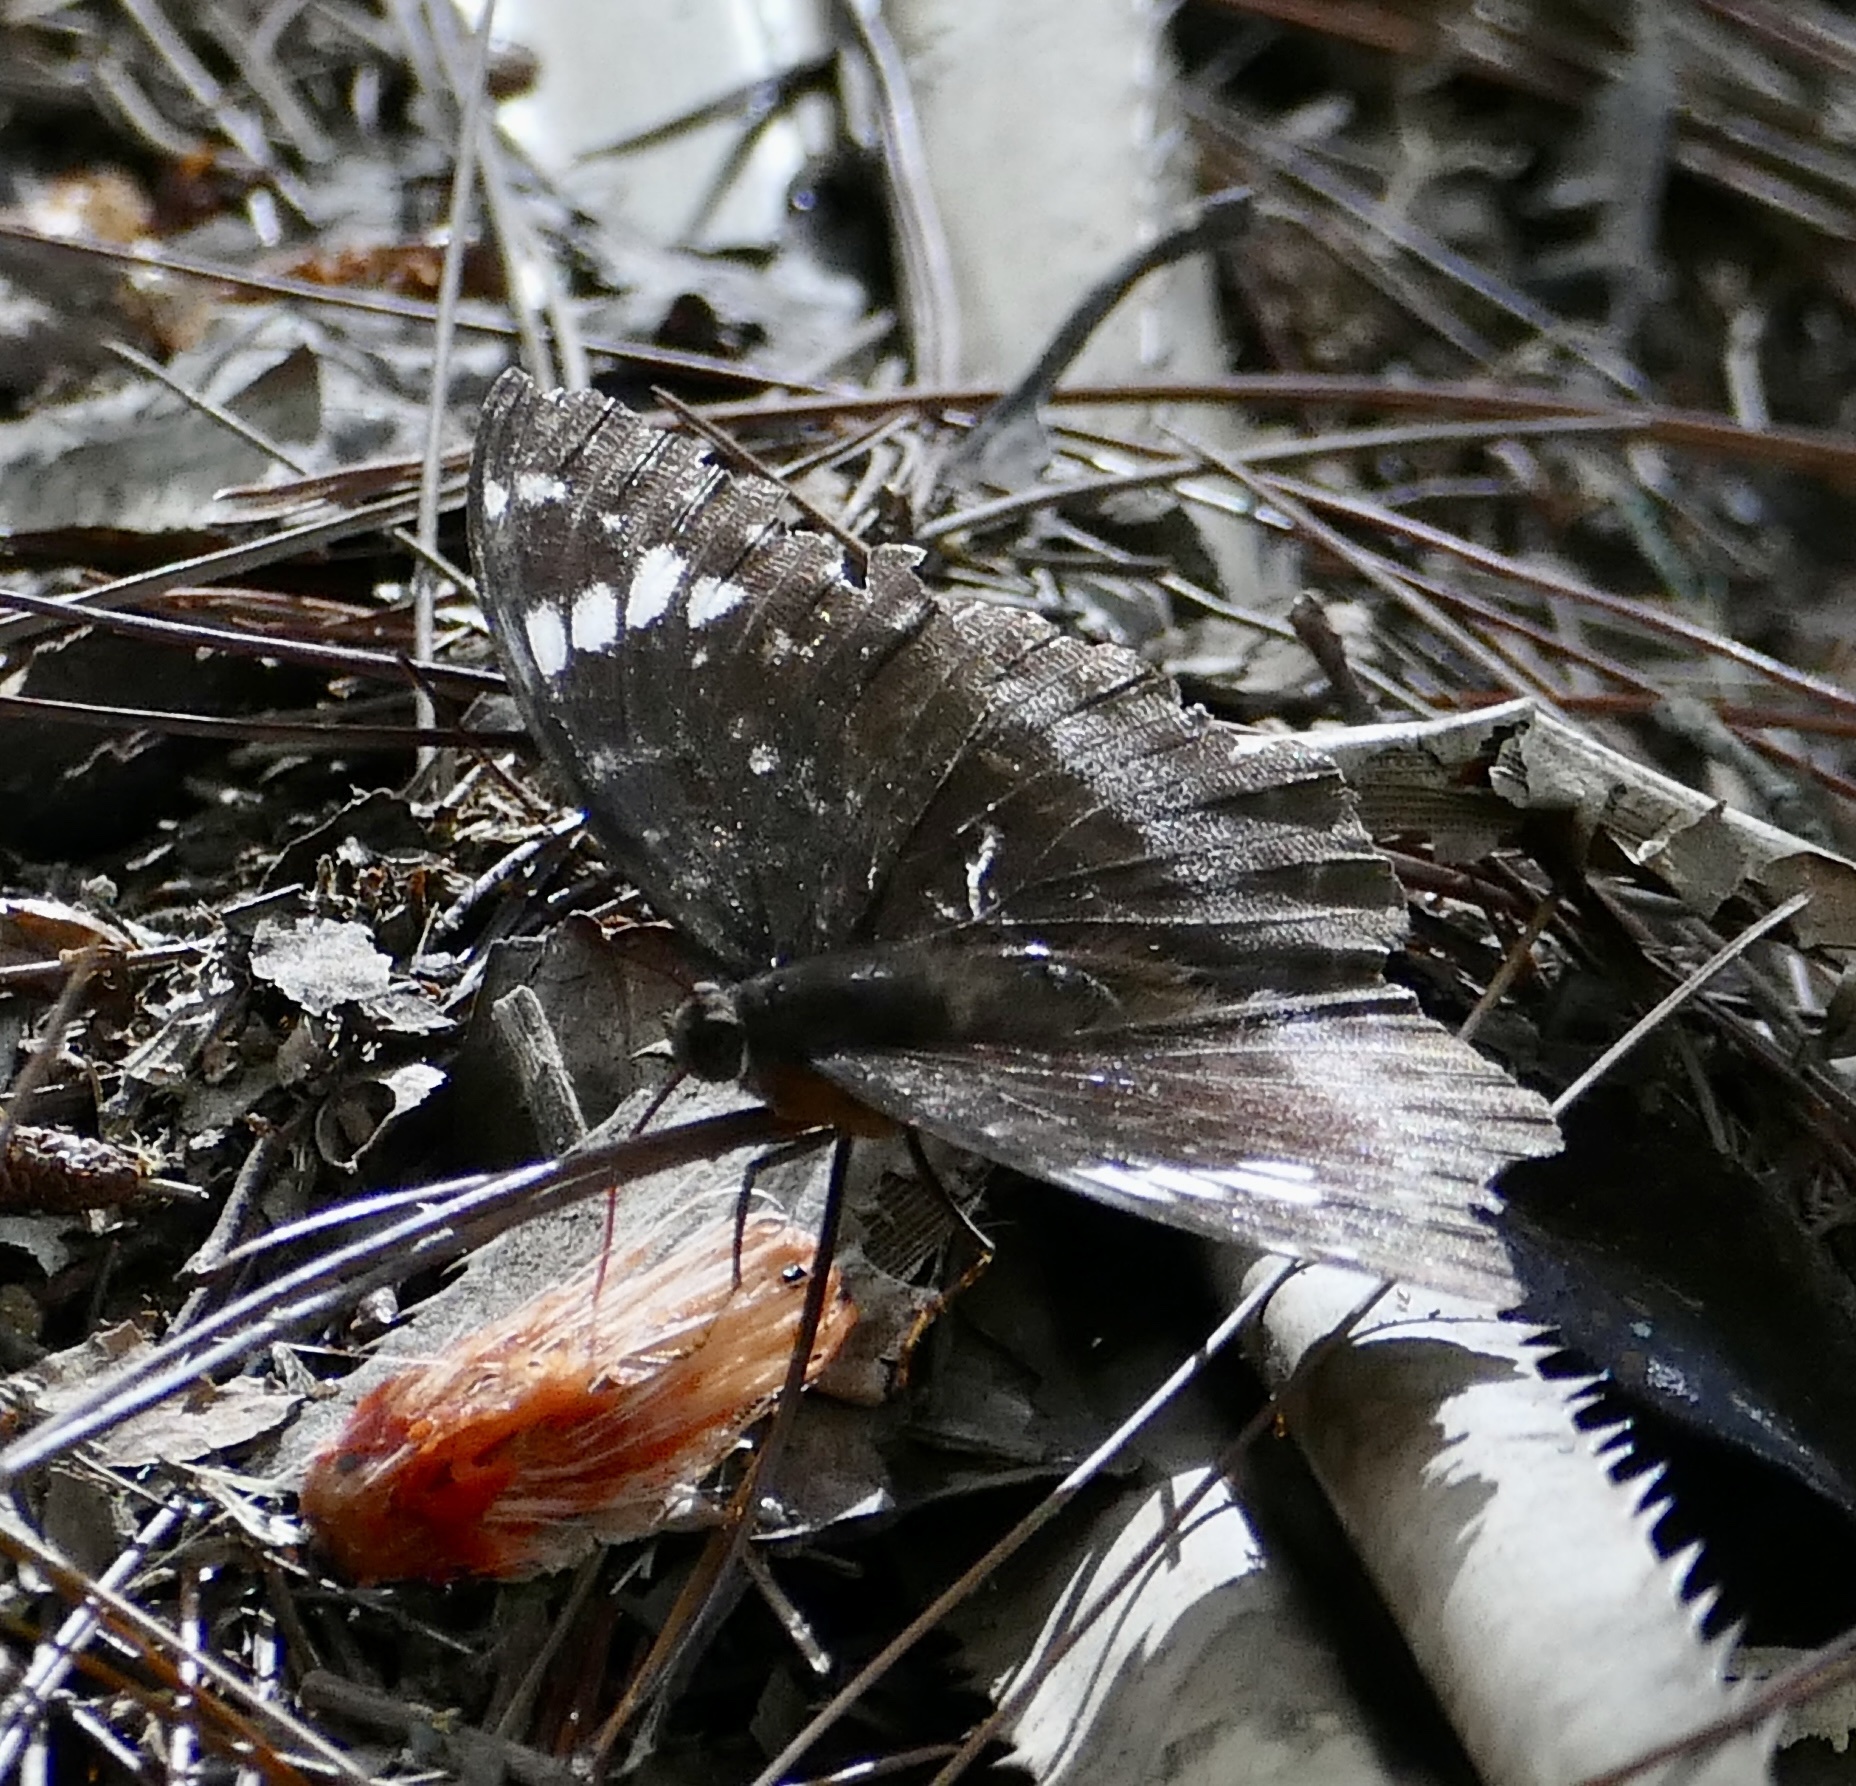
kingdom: Animalia
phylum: Arthropoda
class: Insecta
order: Lepidoptera
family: Nymphalidae
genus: Lexias
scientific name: Lexias aeetes
